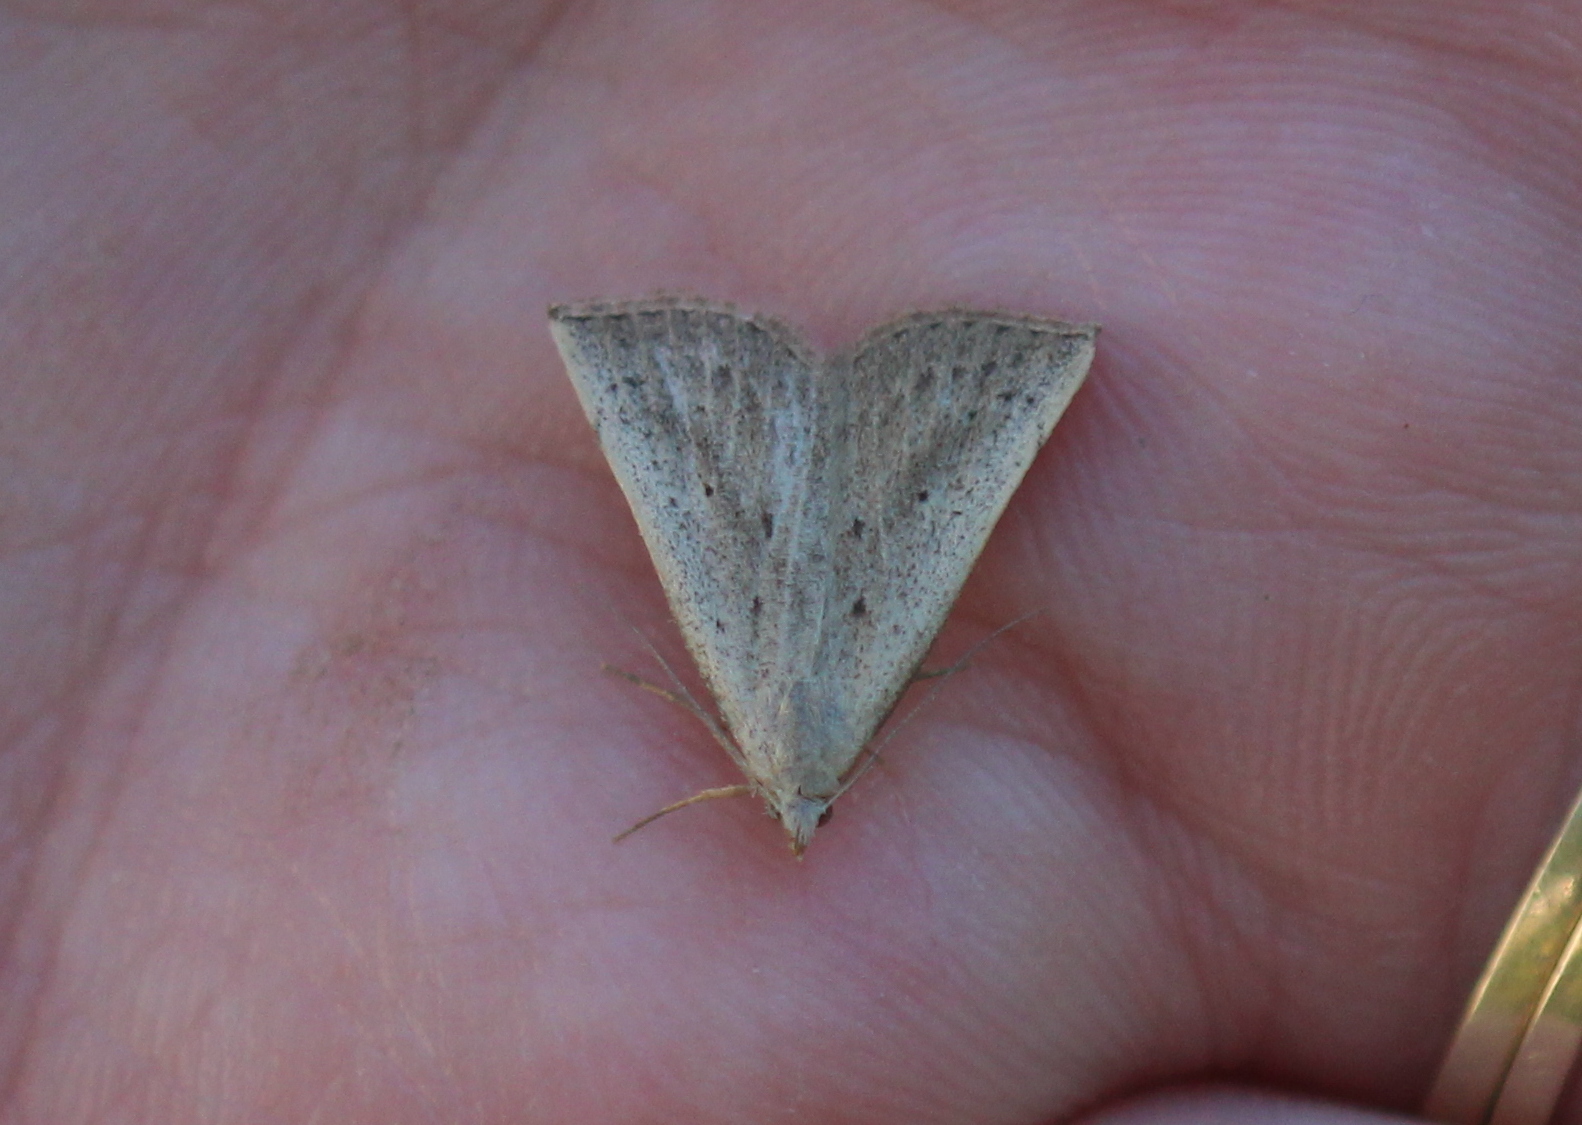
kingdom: Animalia
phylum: Arthropoda
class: Insecta
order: Lepidoptera
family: Erebidae
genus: Macrochilo
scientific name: Macrochilo louisiana
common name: Louisiana macrochilo
